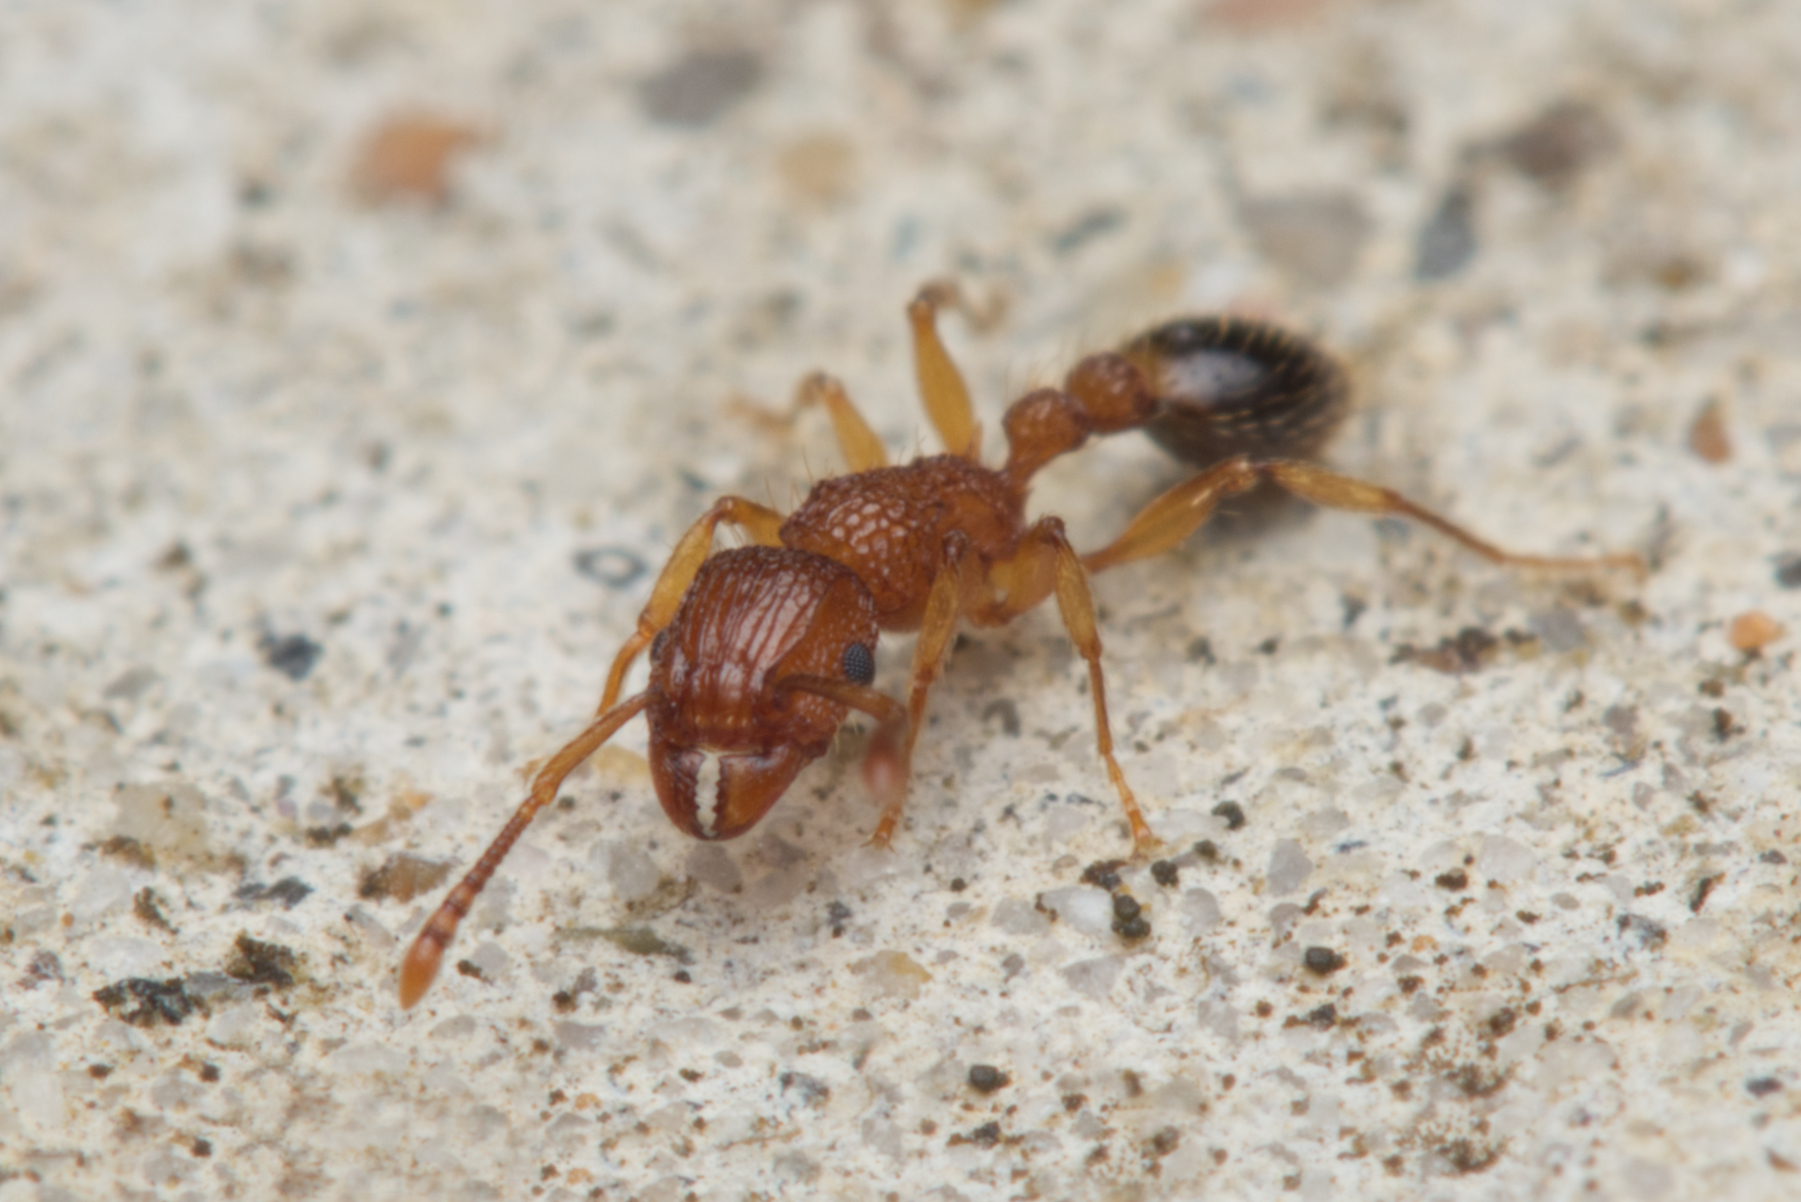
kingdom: Animalia
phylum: Arthropoda
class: Insecta
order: Hymenoptera
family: Formicidae
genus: Tetramorium
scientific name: Tetramorium bicarinatum
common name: Guinea ant
